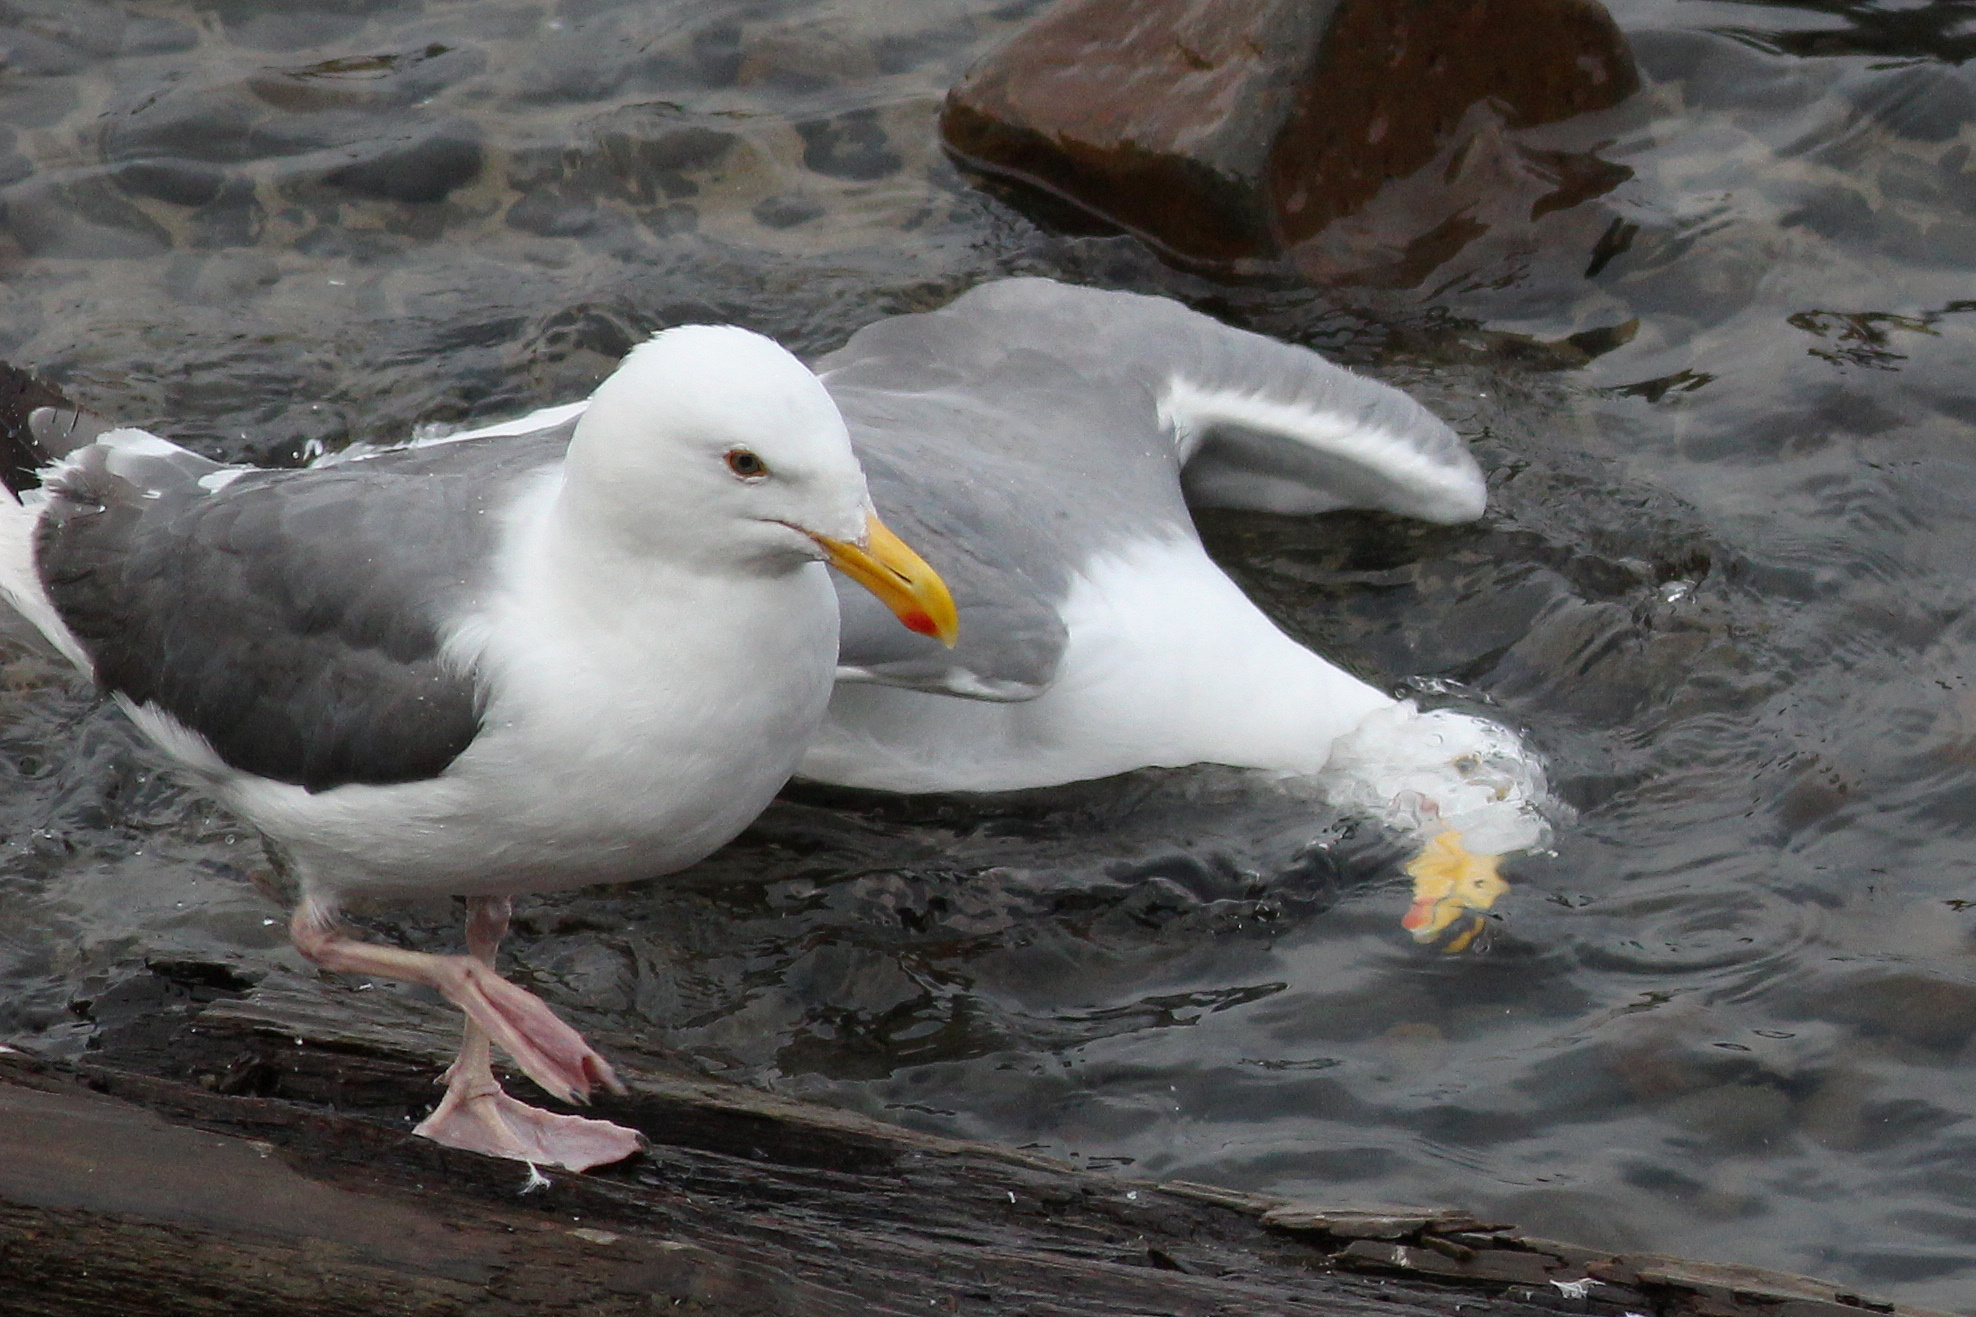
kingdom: Animalia
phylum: Chordata
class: Aves
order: Charadriiformes
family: Laridae
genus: Larus
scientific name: Larus occidentalis
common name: Western gull
